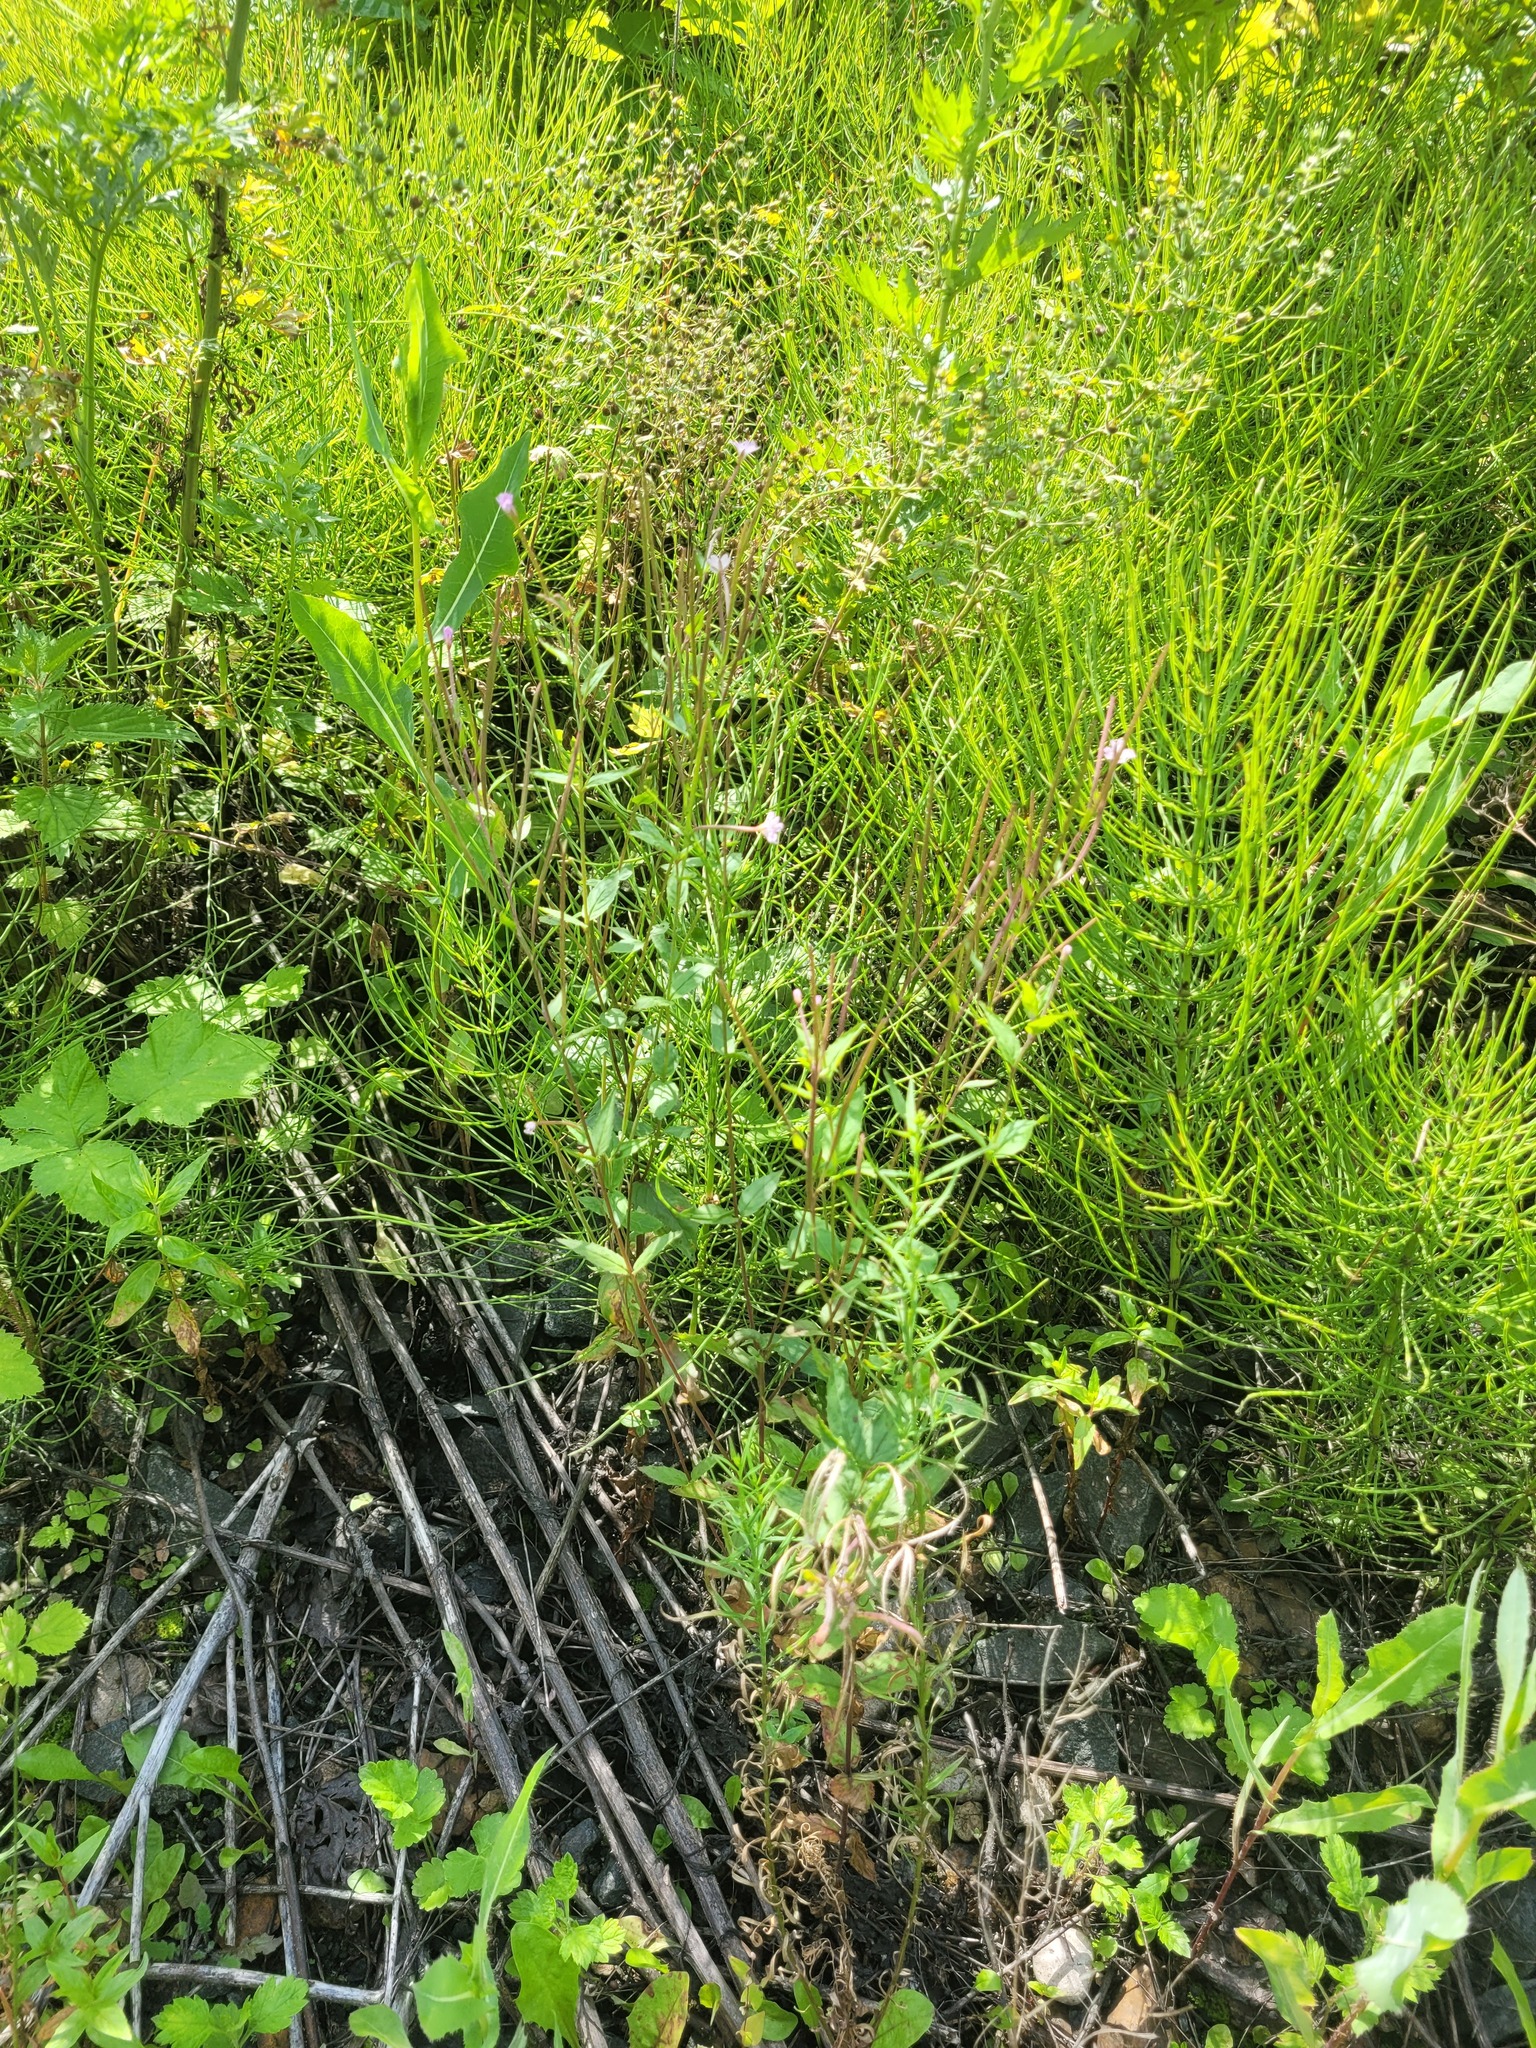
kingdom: Plantae
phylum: Tracheophyta
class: Magnoliopsida
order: Myrtales
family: Onagraceae
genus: Epilobium
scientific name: Epilobium montanum
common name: Broad-leaved willowherb
